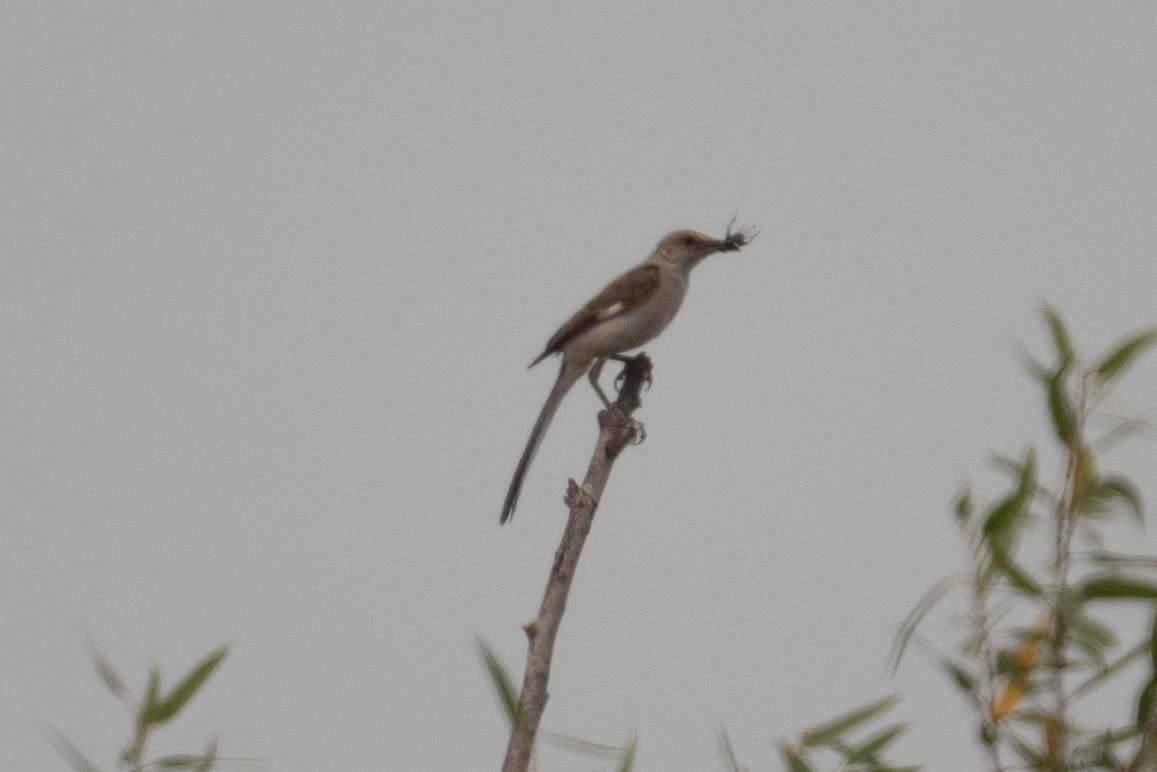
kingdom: Animalia
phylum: Chordata
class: Aves
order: Passeriformes
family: Mimidae
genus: Mimus
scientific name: Mimus polyglottos
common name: Northern mockingbird
